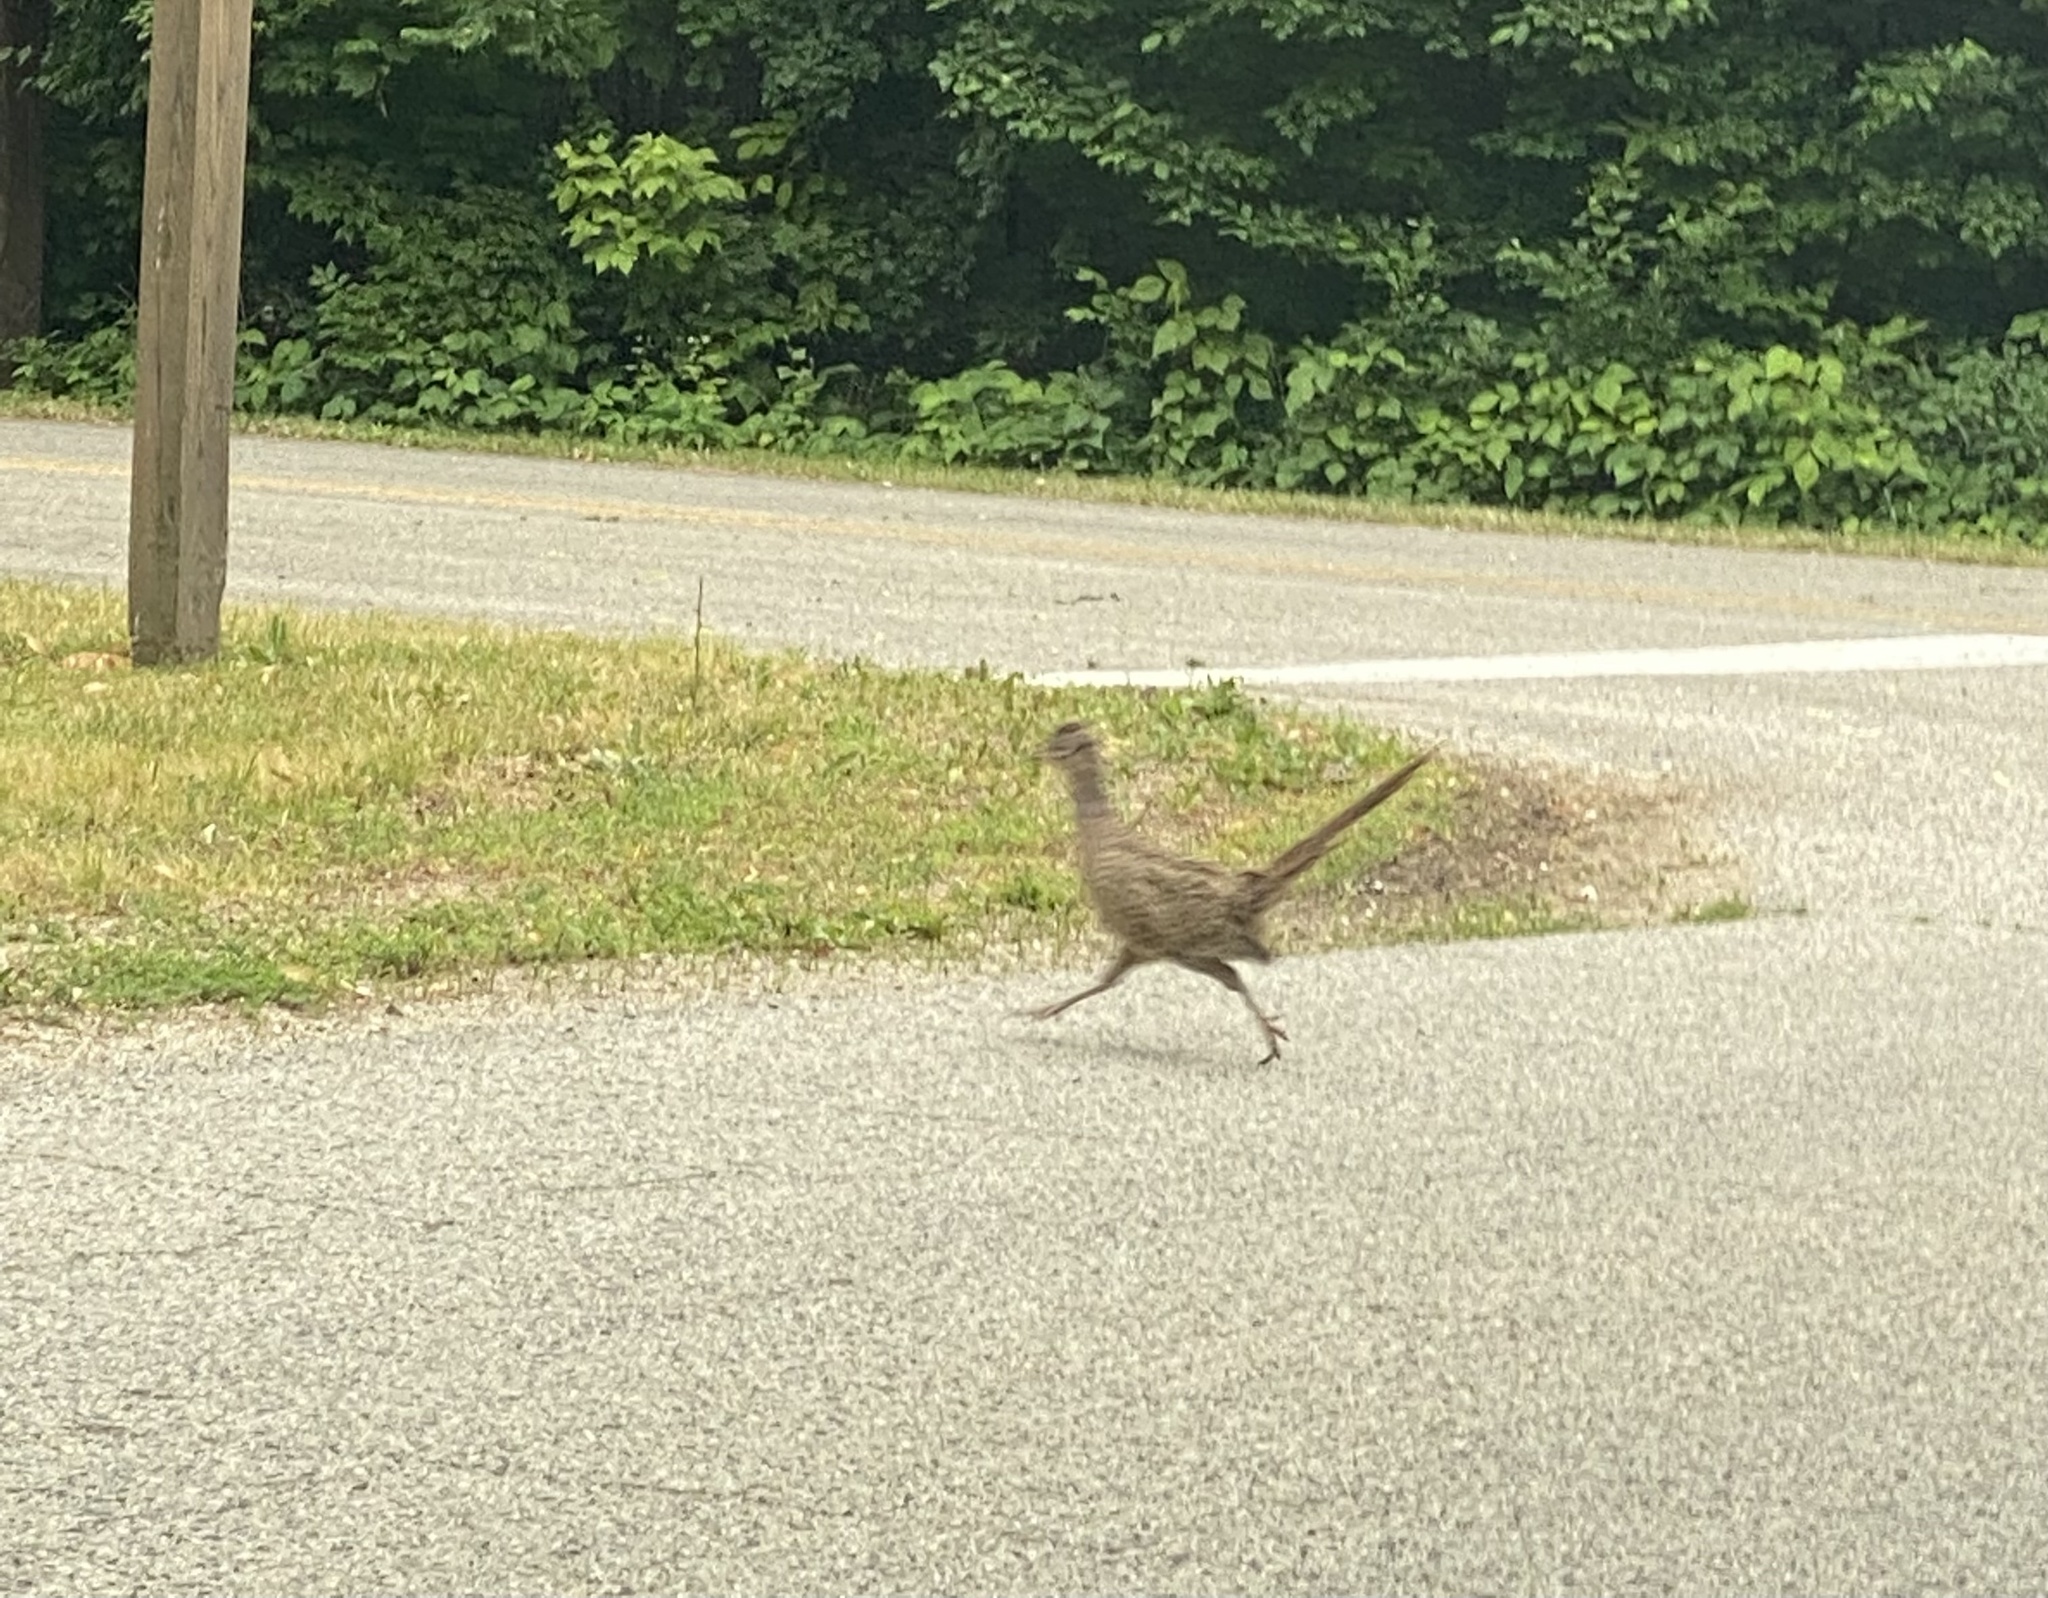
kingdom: Animalia
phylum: Chordata
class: Aves
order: Galliformes
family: Phasianidae
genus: Phasianus
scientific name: Phasianus colchicus
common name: Common pheasant
